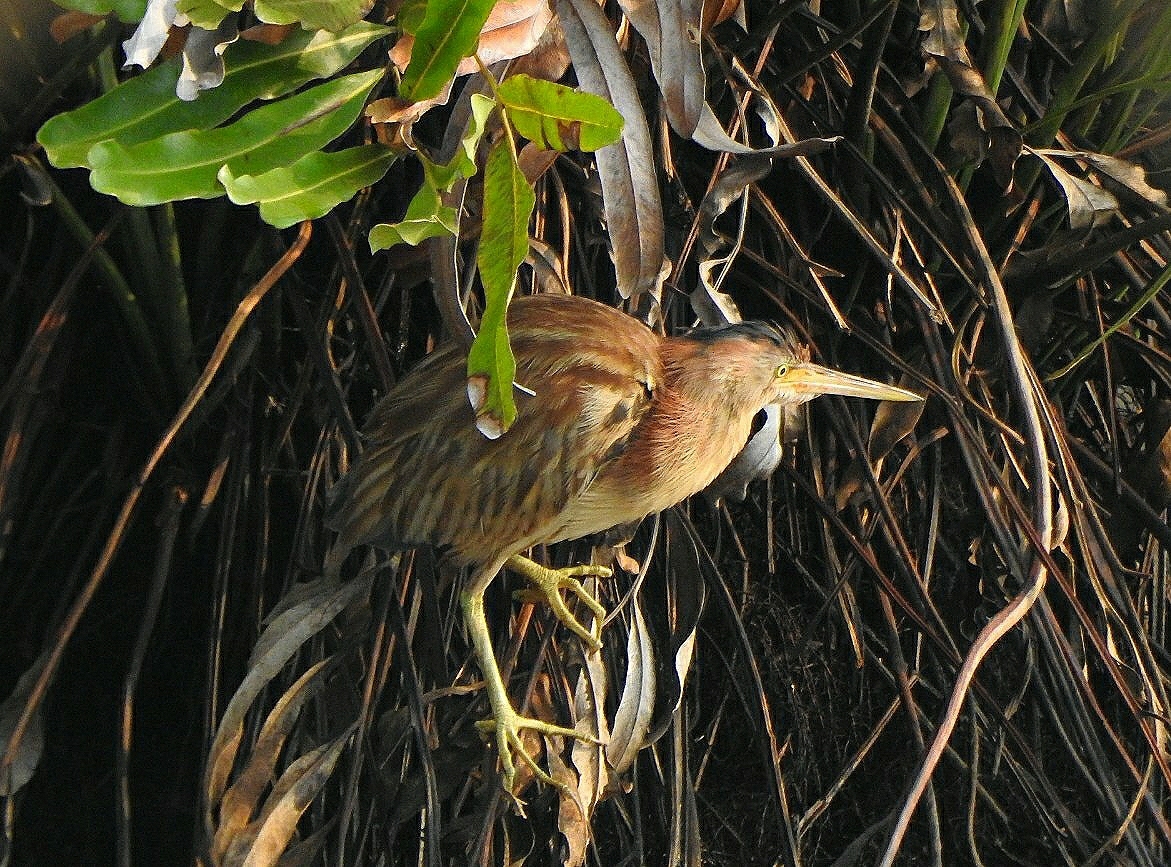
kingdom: Animalia
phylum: Chordata
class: Aves
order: Pelecaniformes
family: Ardeidae
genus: Ixobrychus
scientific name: Ixobrychus sinensis
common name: Yellow bittern
